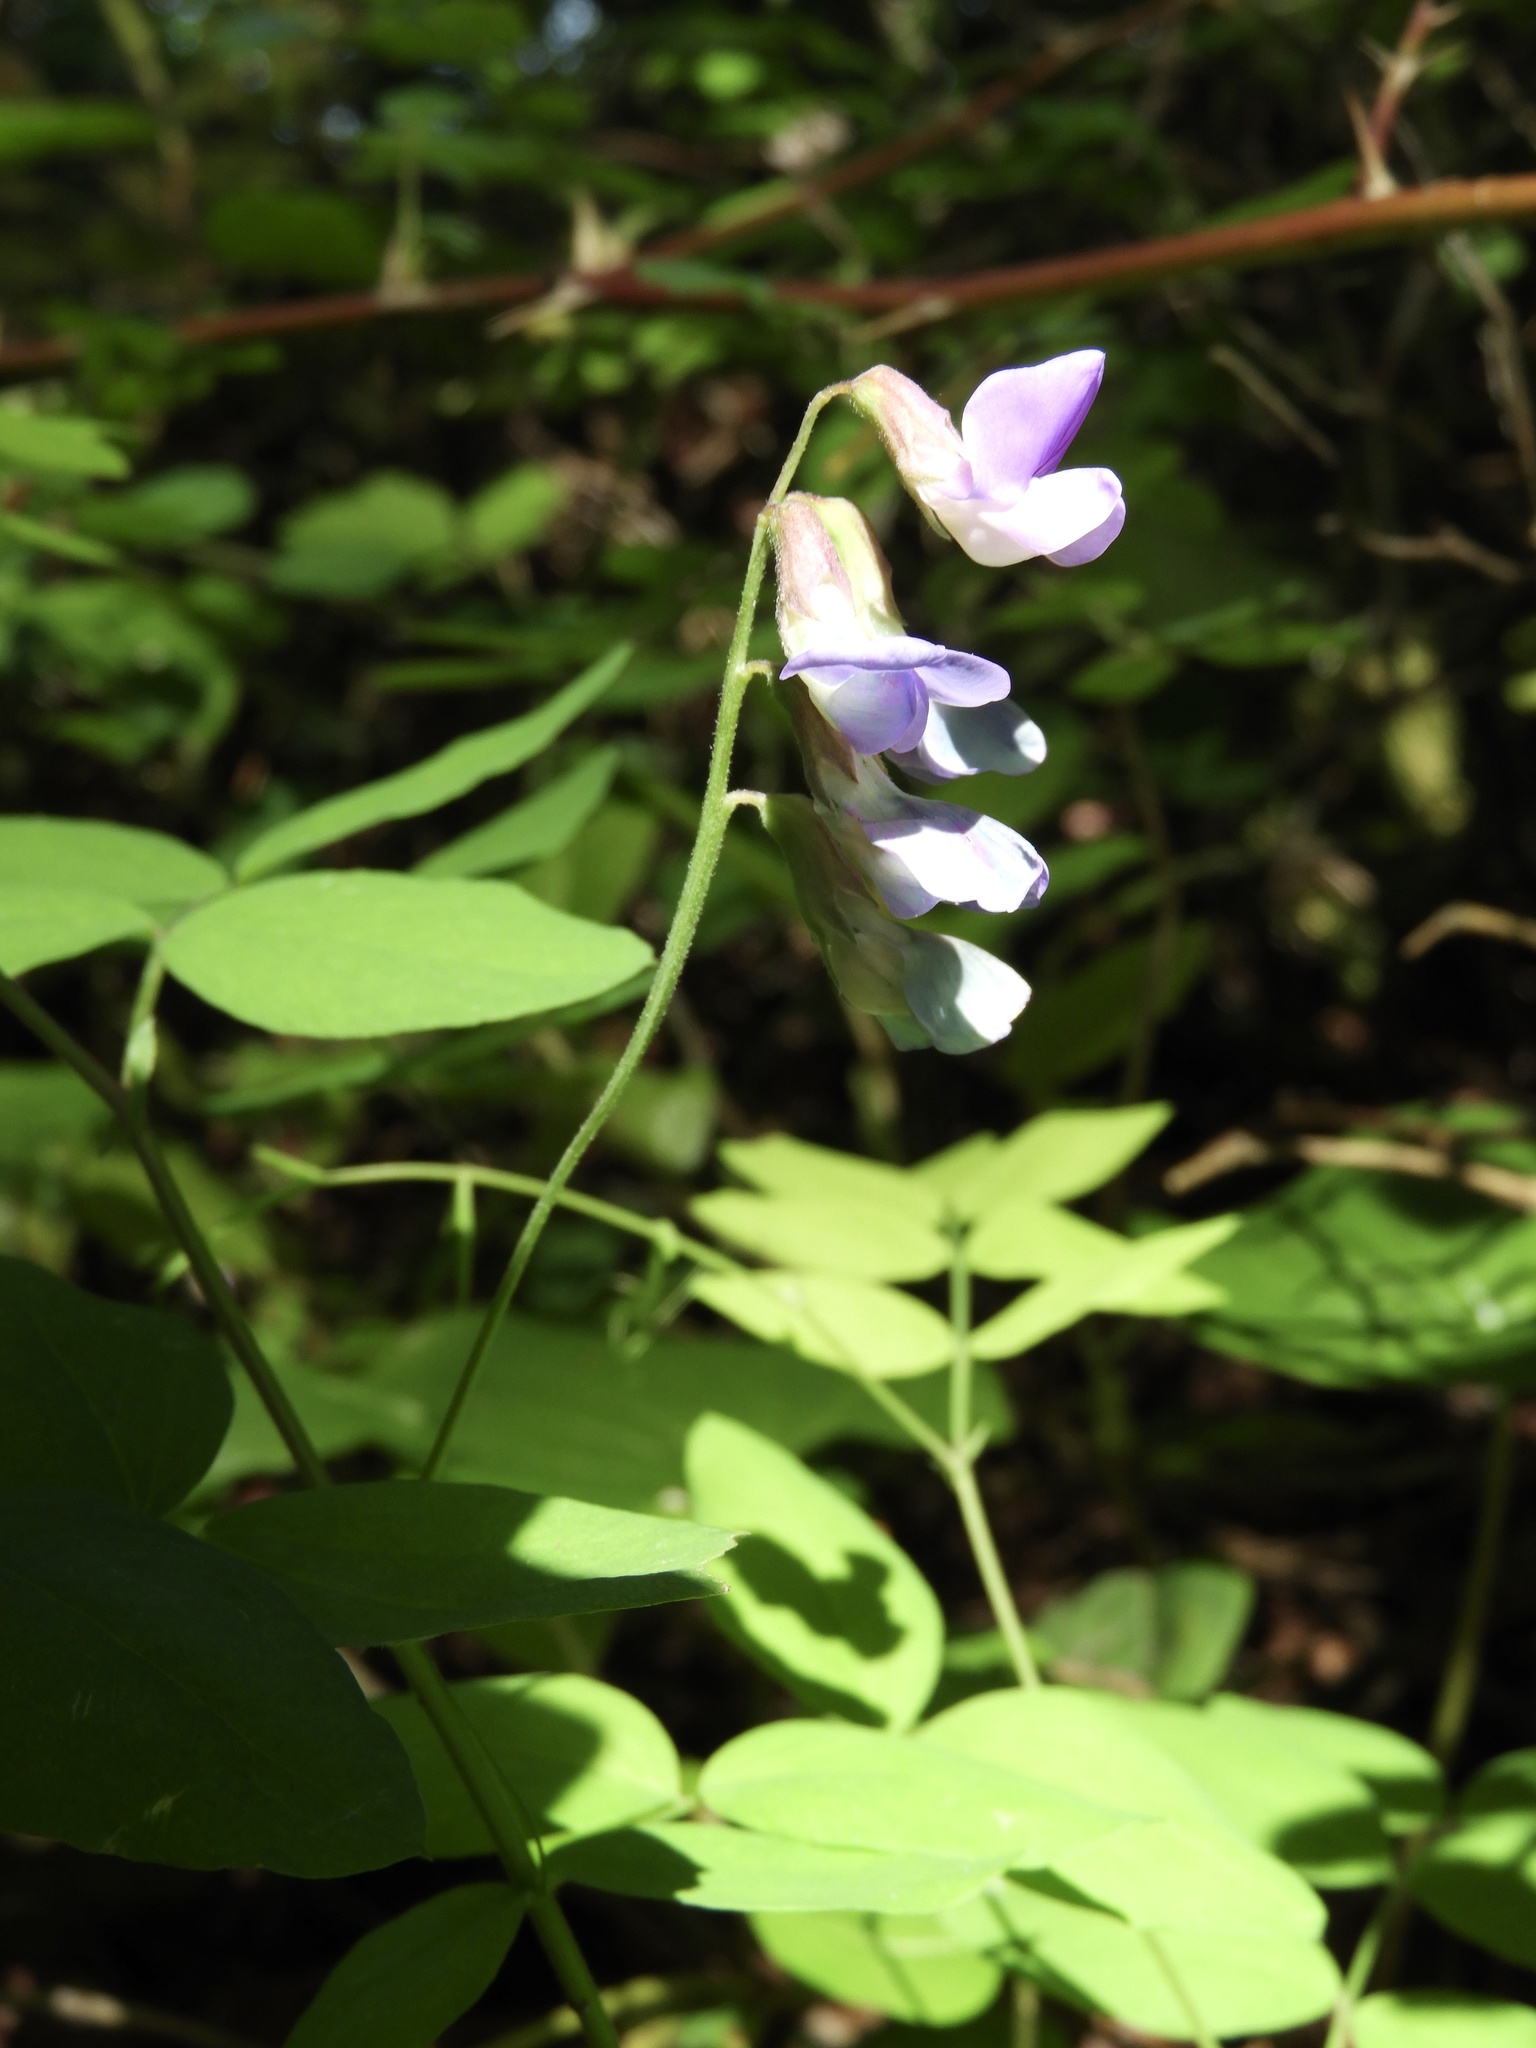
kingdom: Plantae
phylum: Tracheophyta
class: Magnoliopsida
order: Fabales
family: Fabaceae
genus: Lathyrus
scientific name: Lathyrus nevadensis
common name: Sierra nevada peavine
